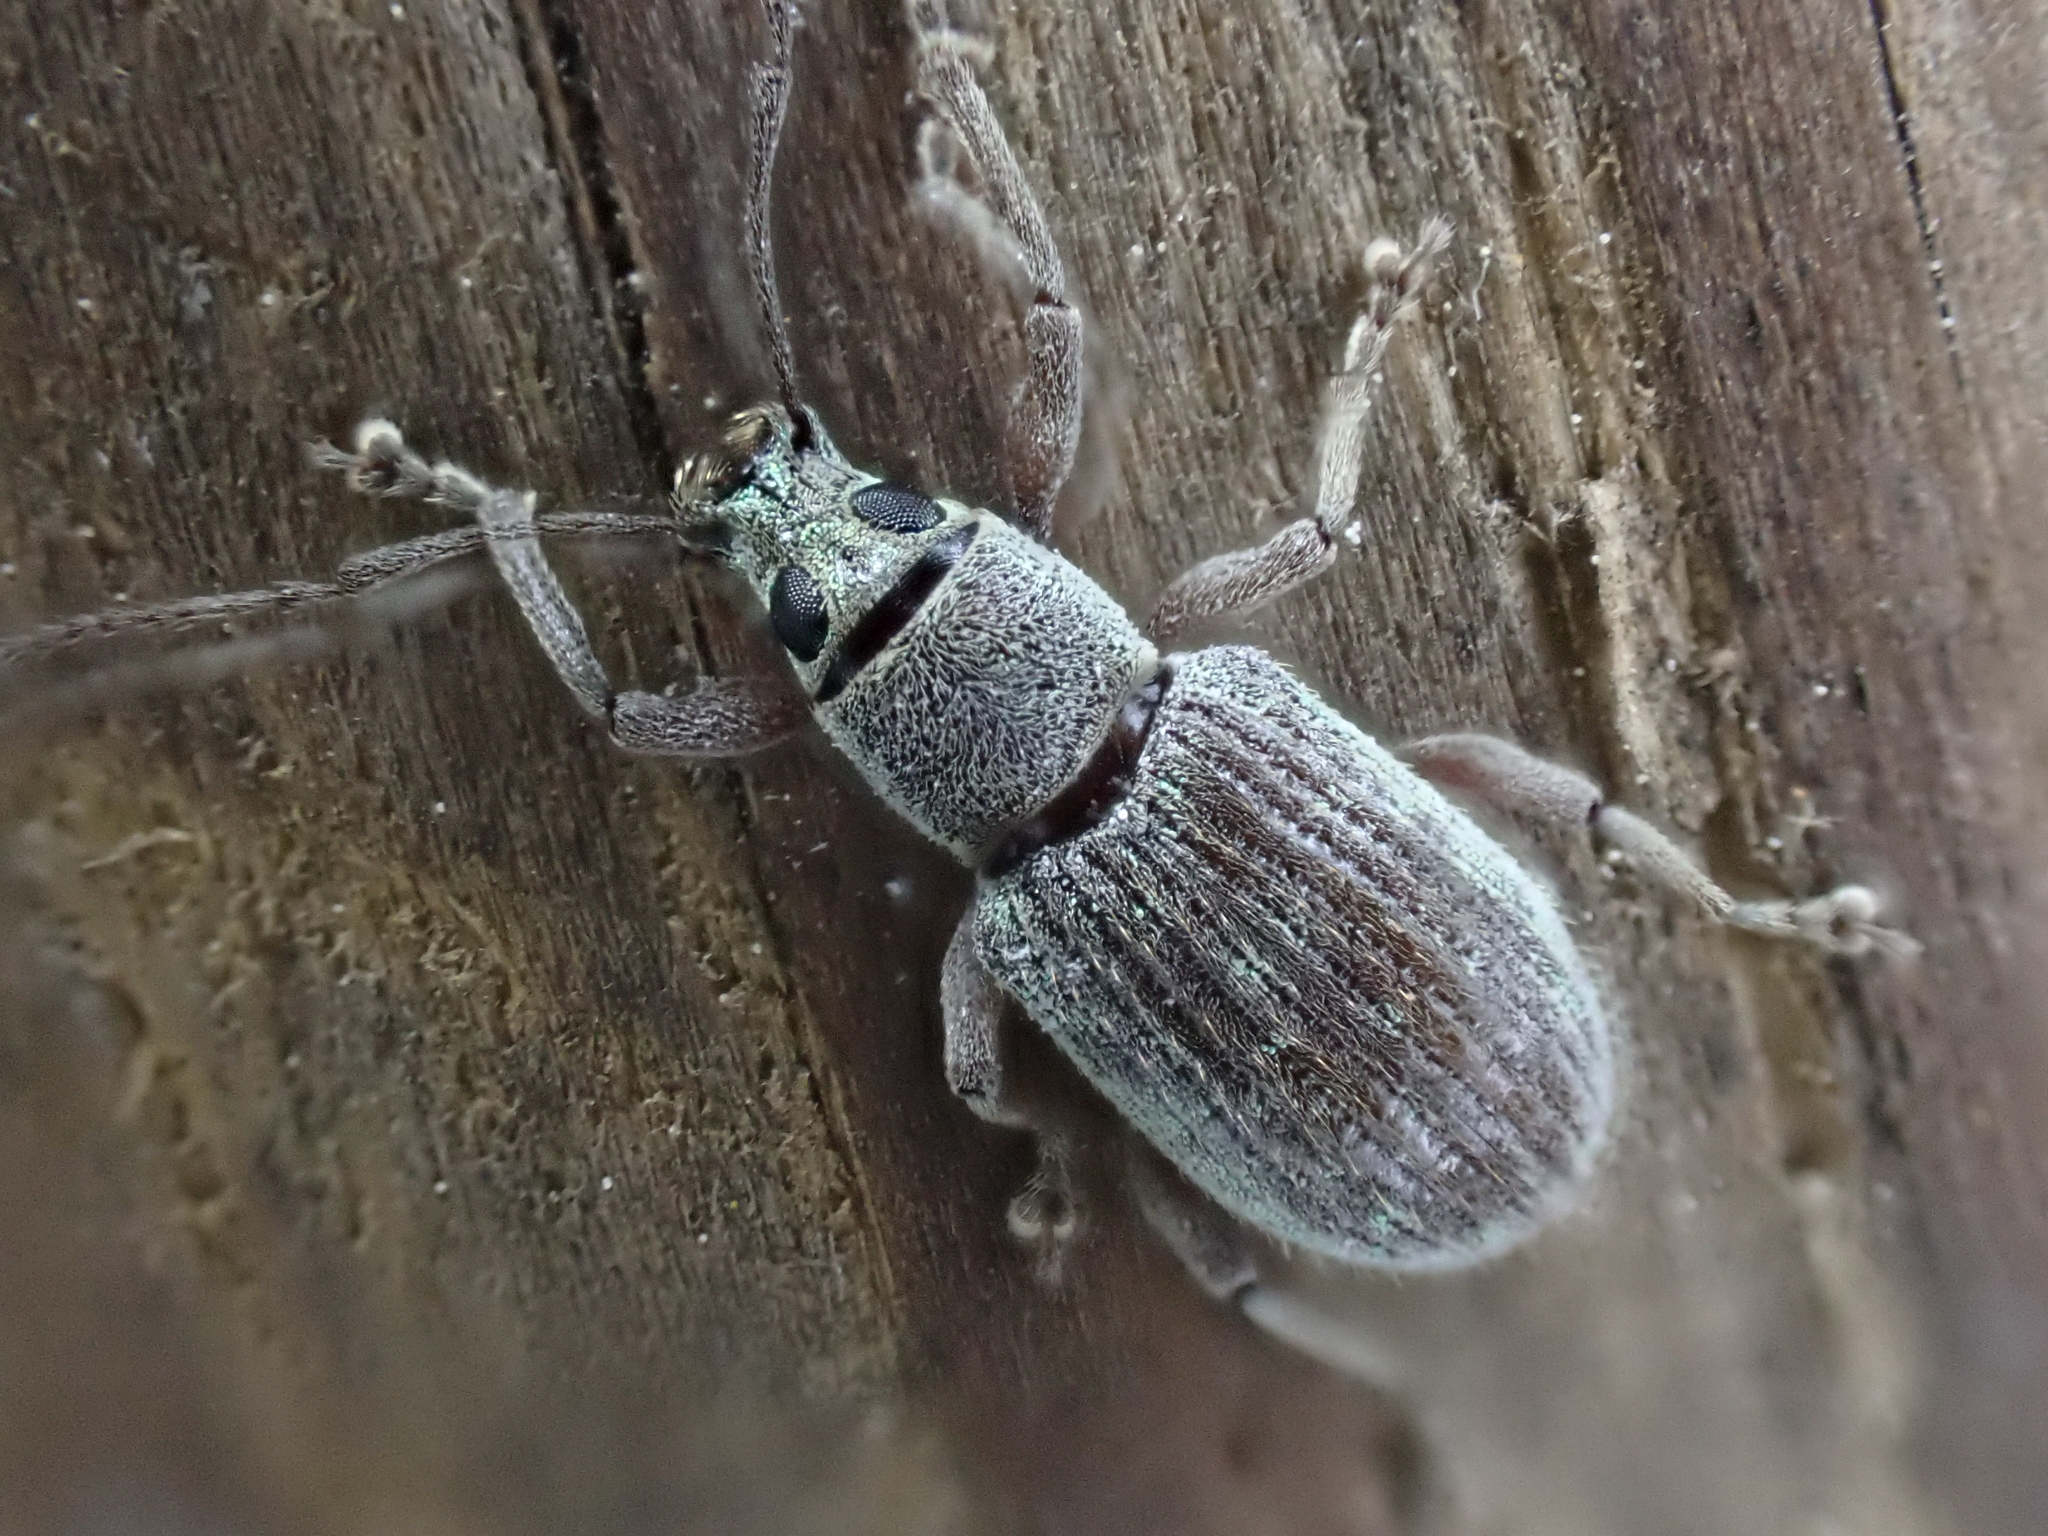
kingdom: Animalia
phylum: Arthropoda
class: Insecta
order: Coleoptera
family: Curculionidae
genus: Cyrtepistomus
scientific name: Cyrtepistomus castaneus
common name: Weevil
